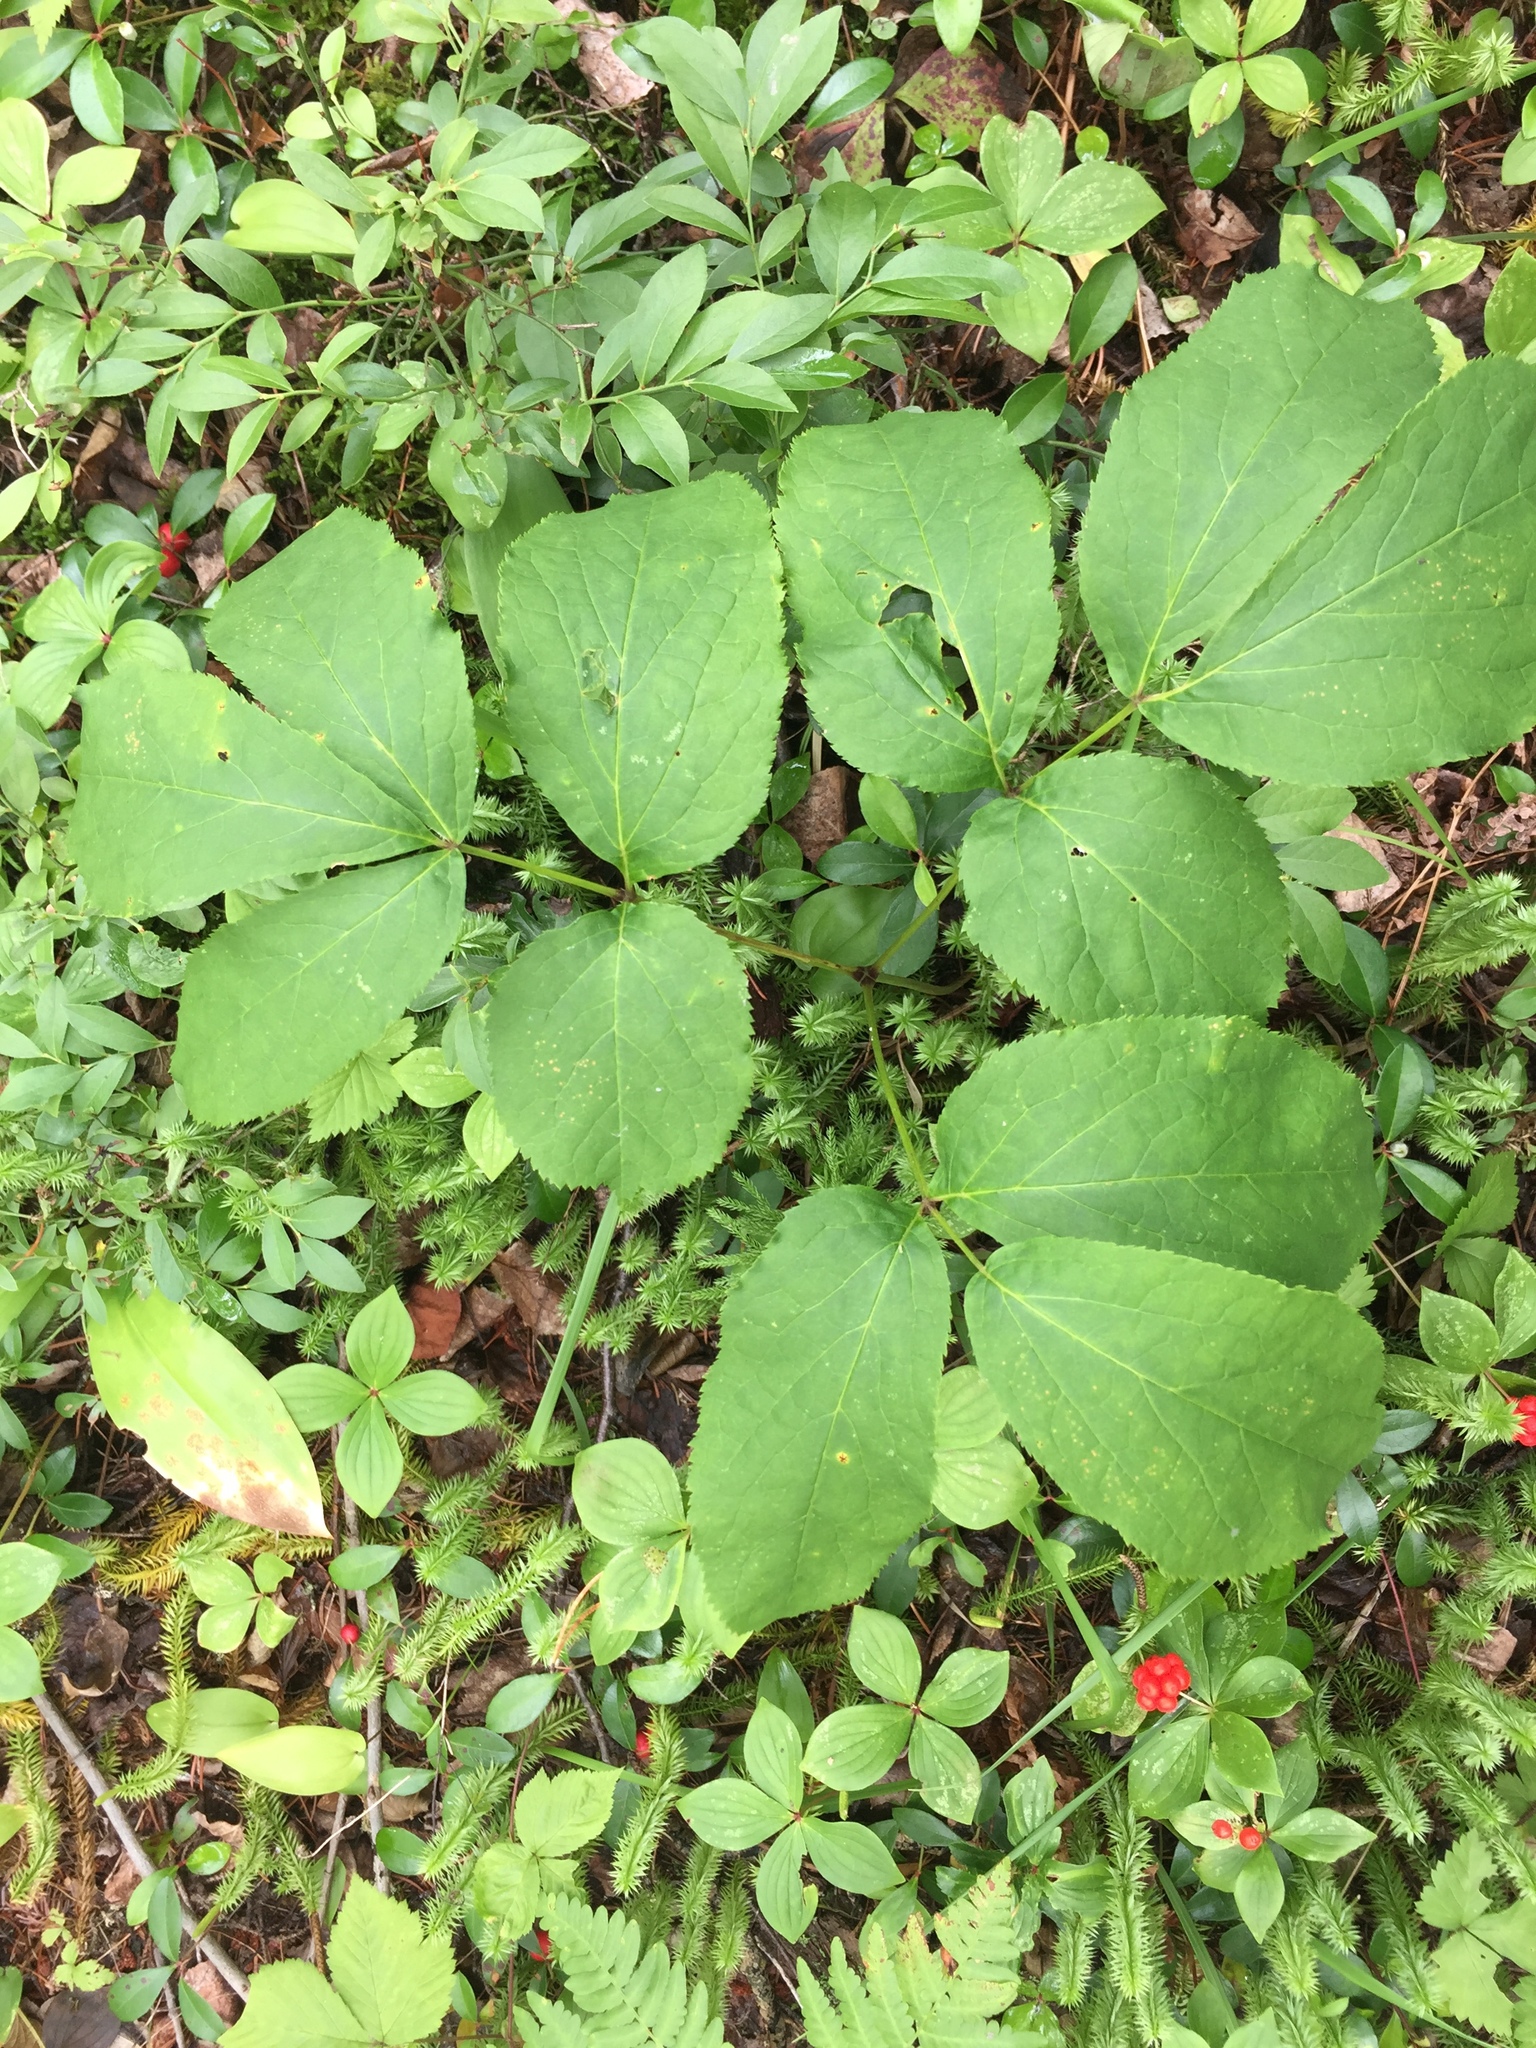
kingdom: Plantae
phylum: Tracheophyta
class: Magnoliopsida
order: Apiales
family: Araliaceae
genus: Aralia
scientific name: Aralia nudicaulis
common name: Wild sarsaparilla
